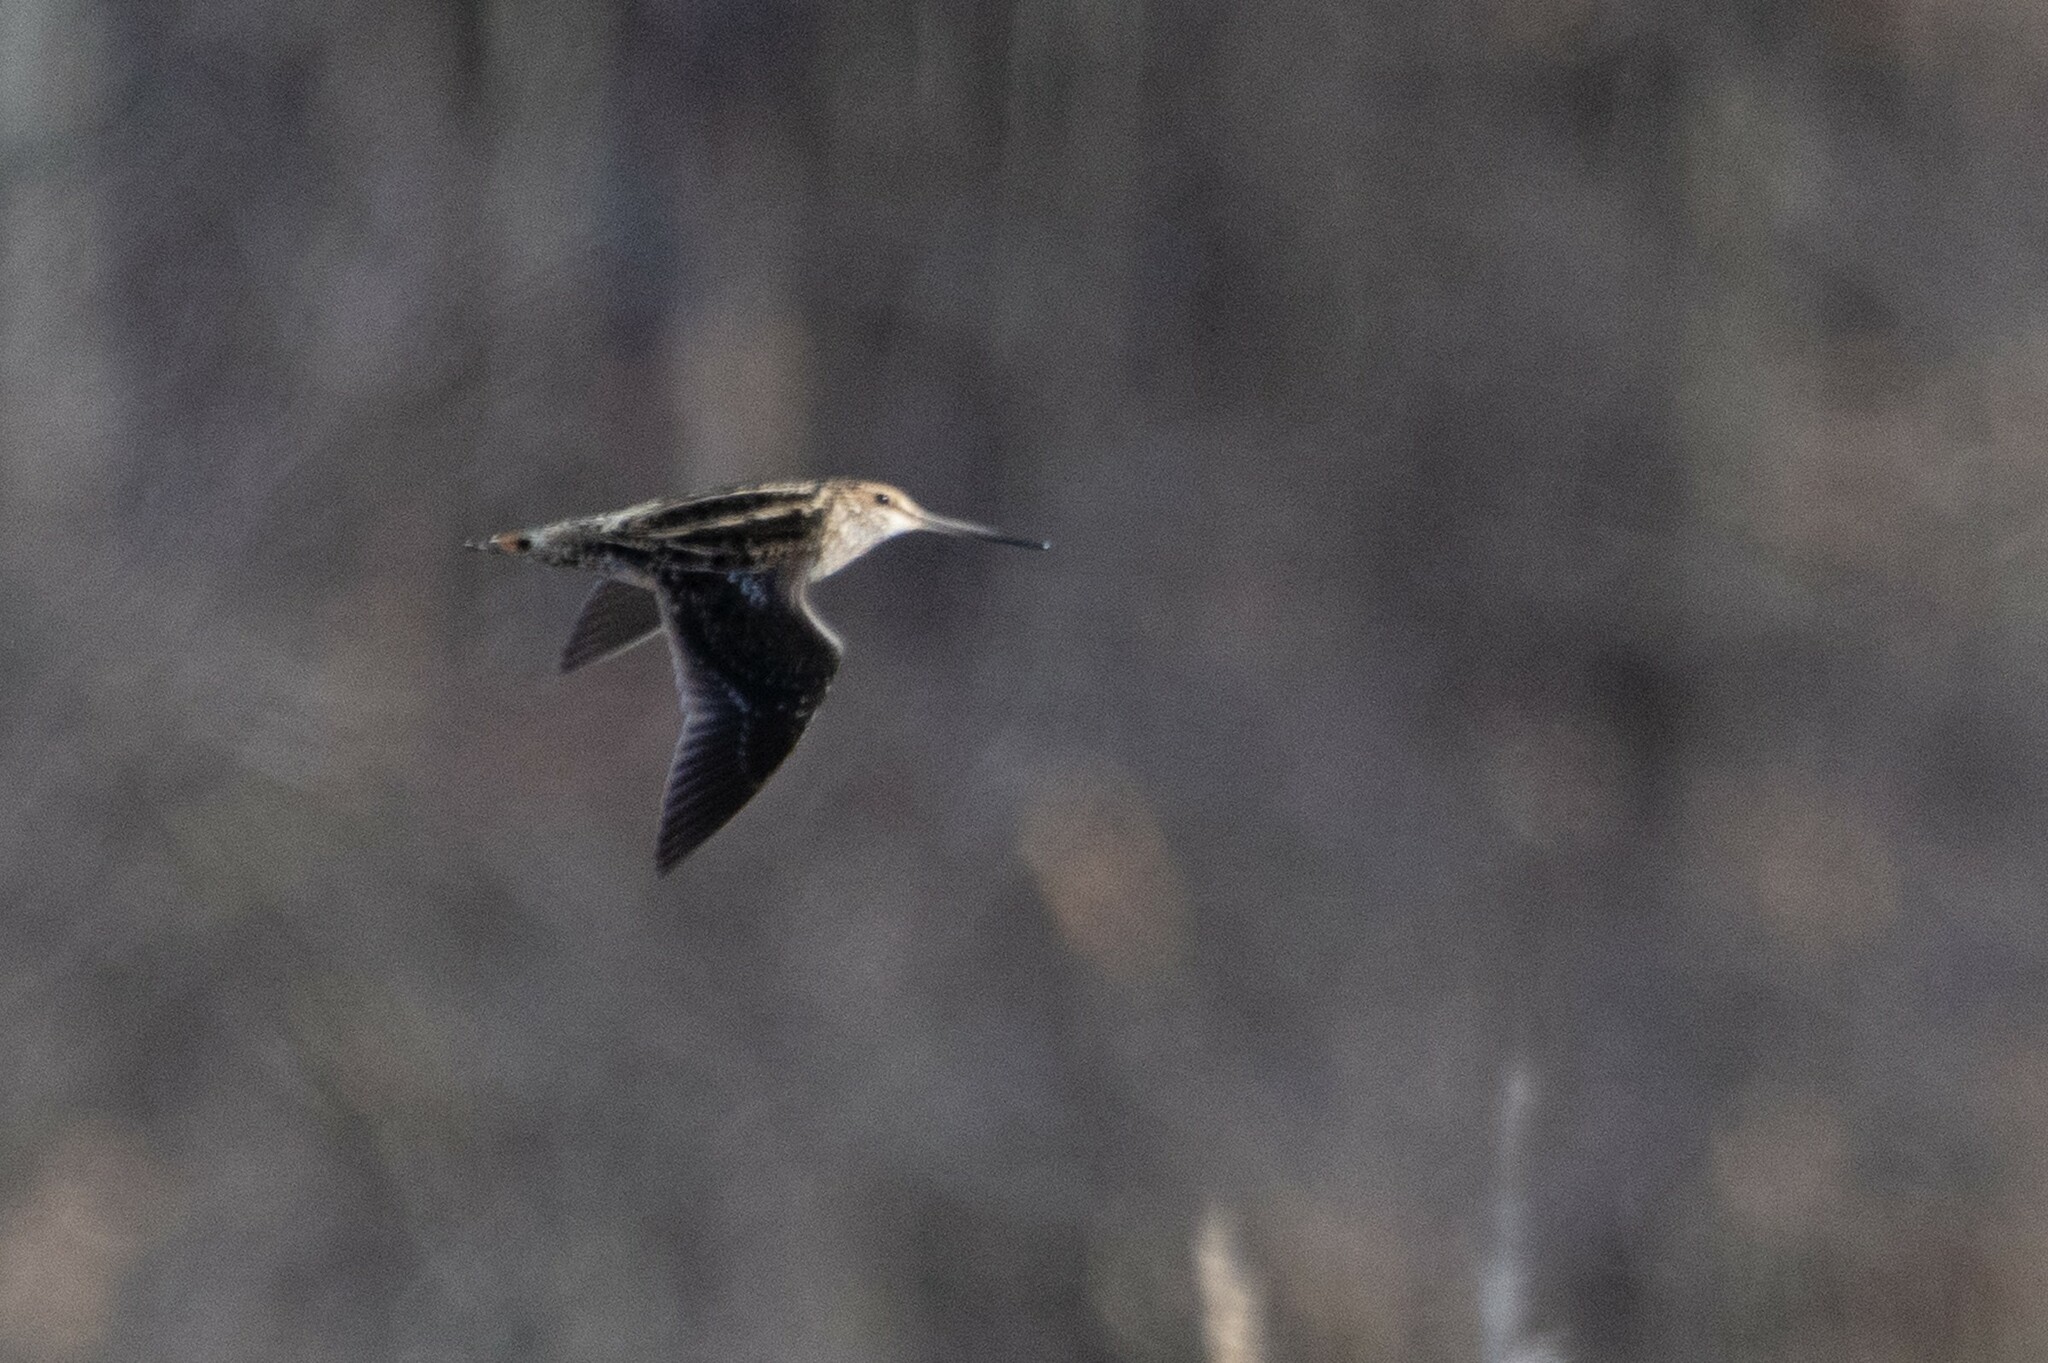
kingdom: Animalia
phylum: Chordata
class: Aves
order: Charadriiformes
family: Scolopacidae
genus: Gallinago
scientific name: Gallinago delicata
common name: Wilson's snipe
